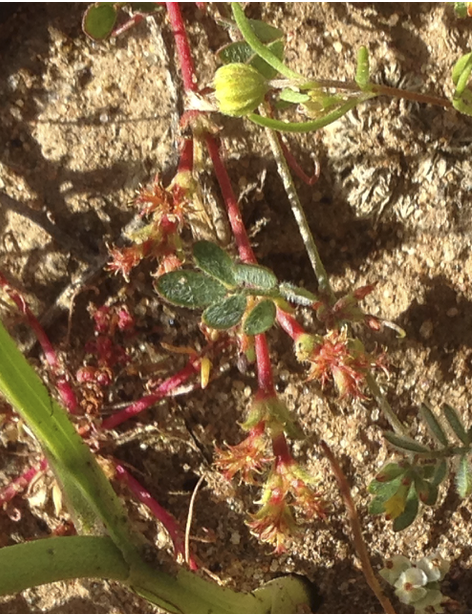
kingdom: Plantae
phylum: Tracheophyta
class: Magnoliopsida
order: Caryophyllales
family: Polygonaceae
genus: Lastarriaea
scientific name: Lastarriaea coriacea
